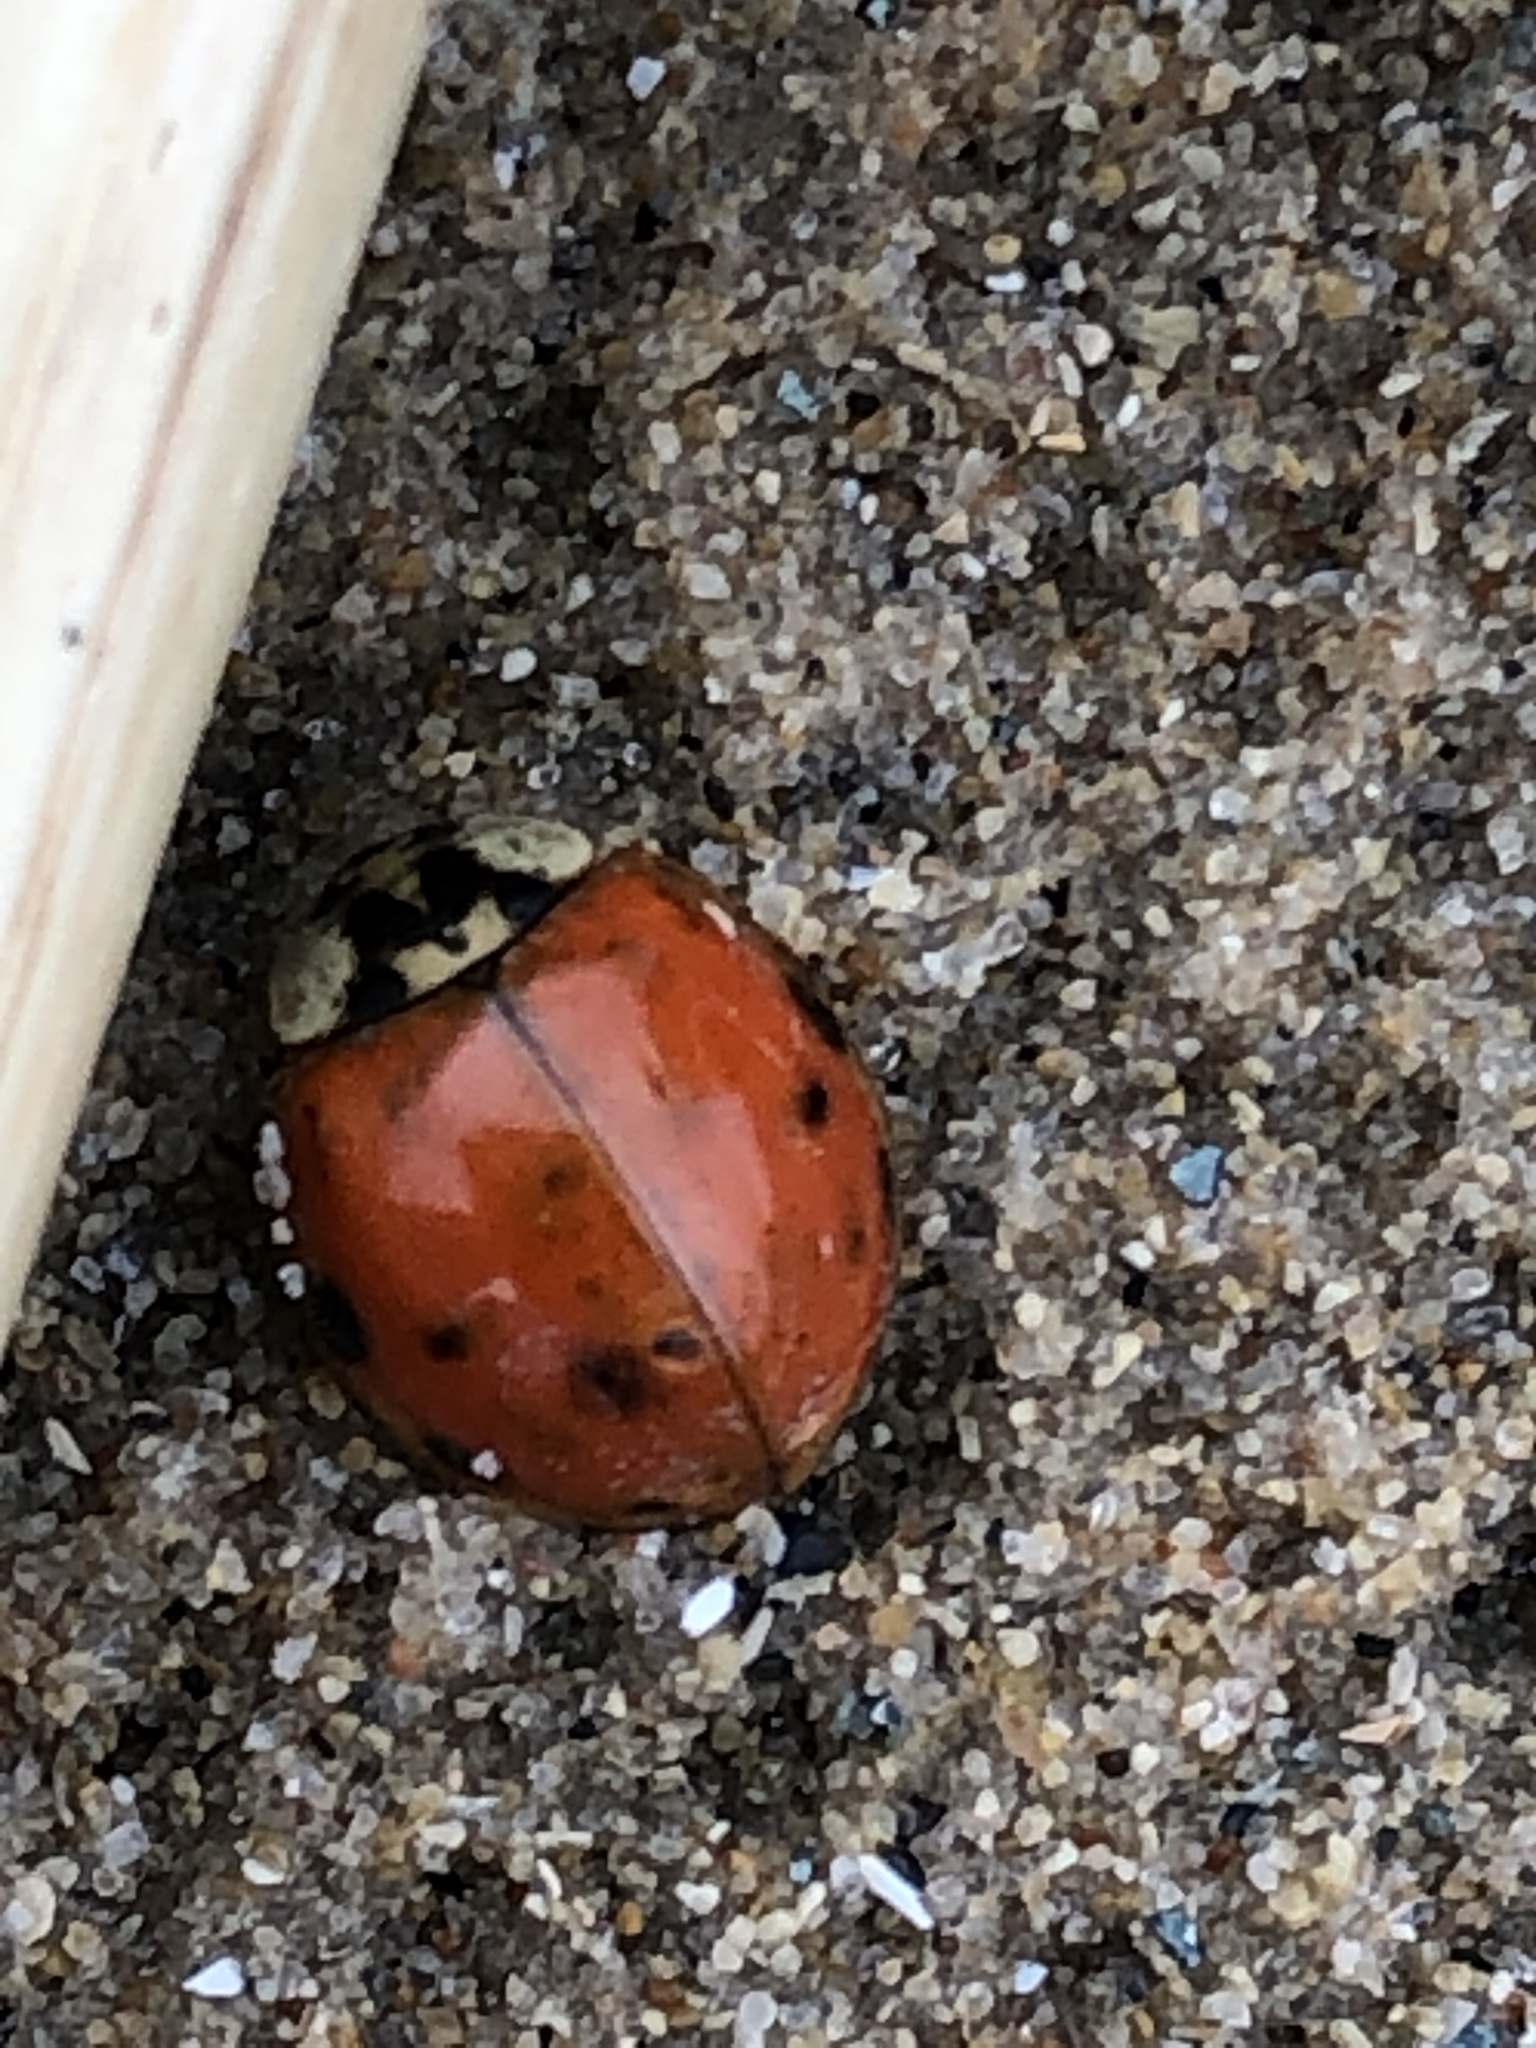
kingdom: Animalia
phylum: Arthropoda
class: Insecta
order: Coleoptera
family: Coccinellidae
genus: Harmonia
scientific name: Harmonia axyridis
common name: Harlequin ladybird
